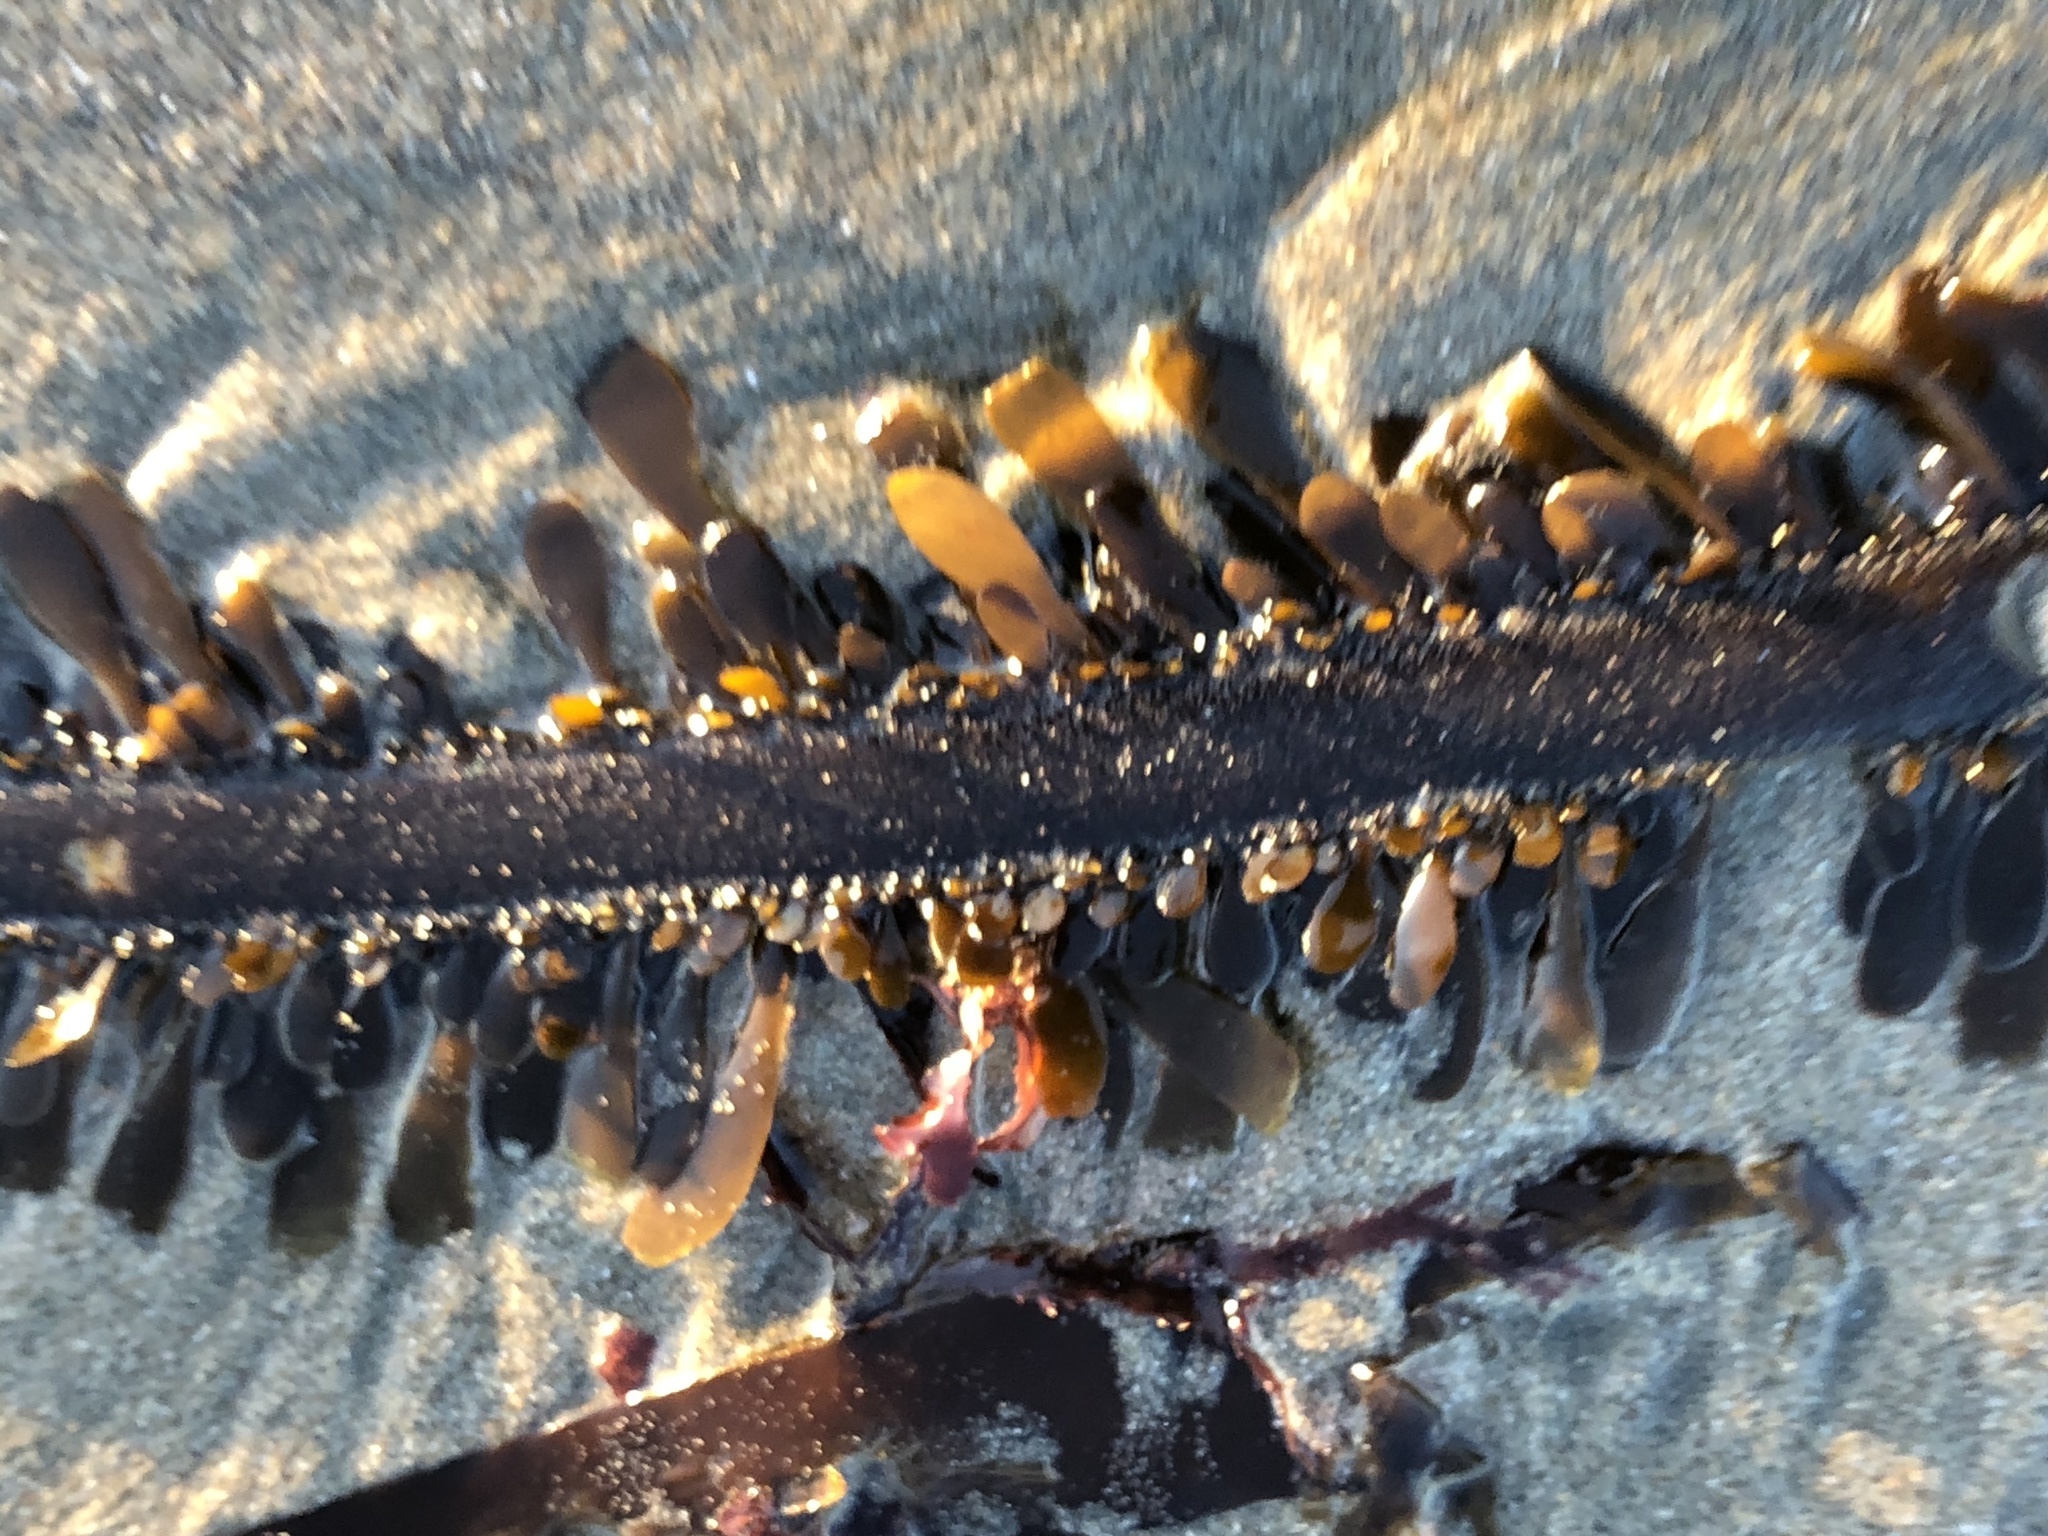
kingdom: Chromista
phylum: Ochrophyta
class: Phaeophyceae
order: Laminariales
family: Lessoniaceae
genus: Egregia
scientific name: Egregia menziesii
